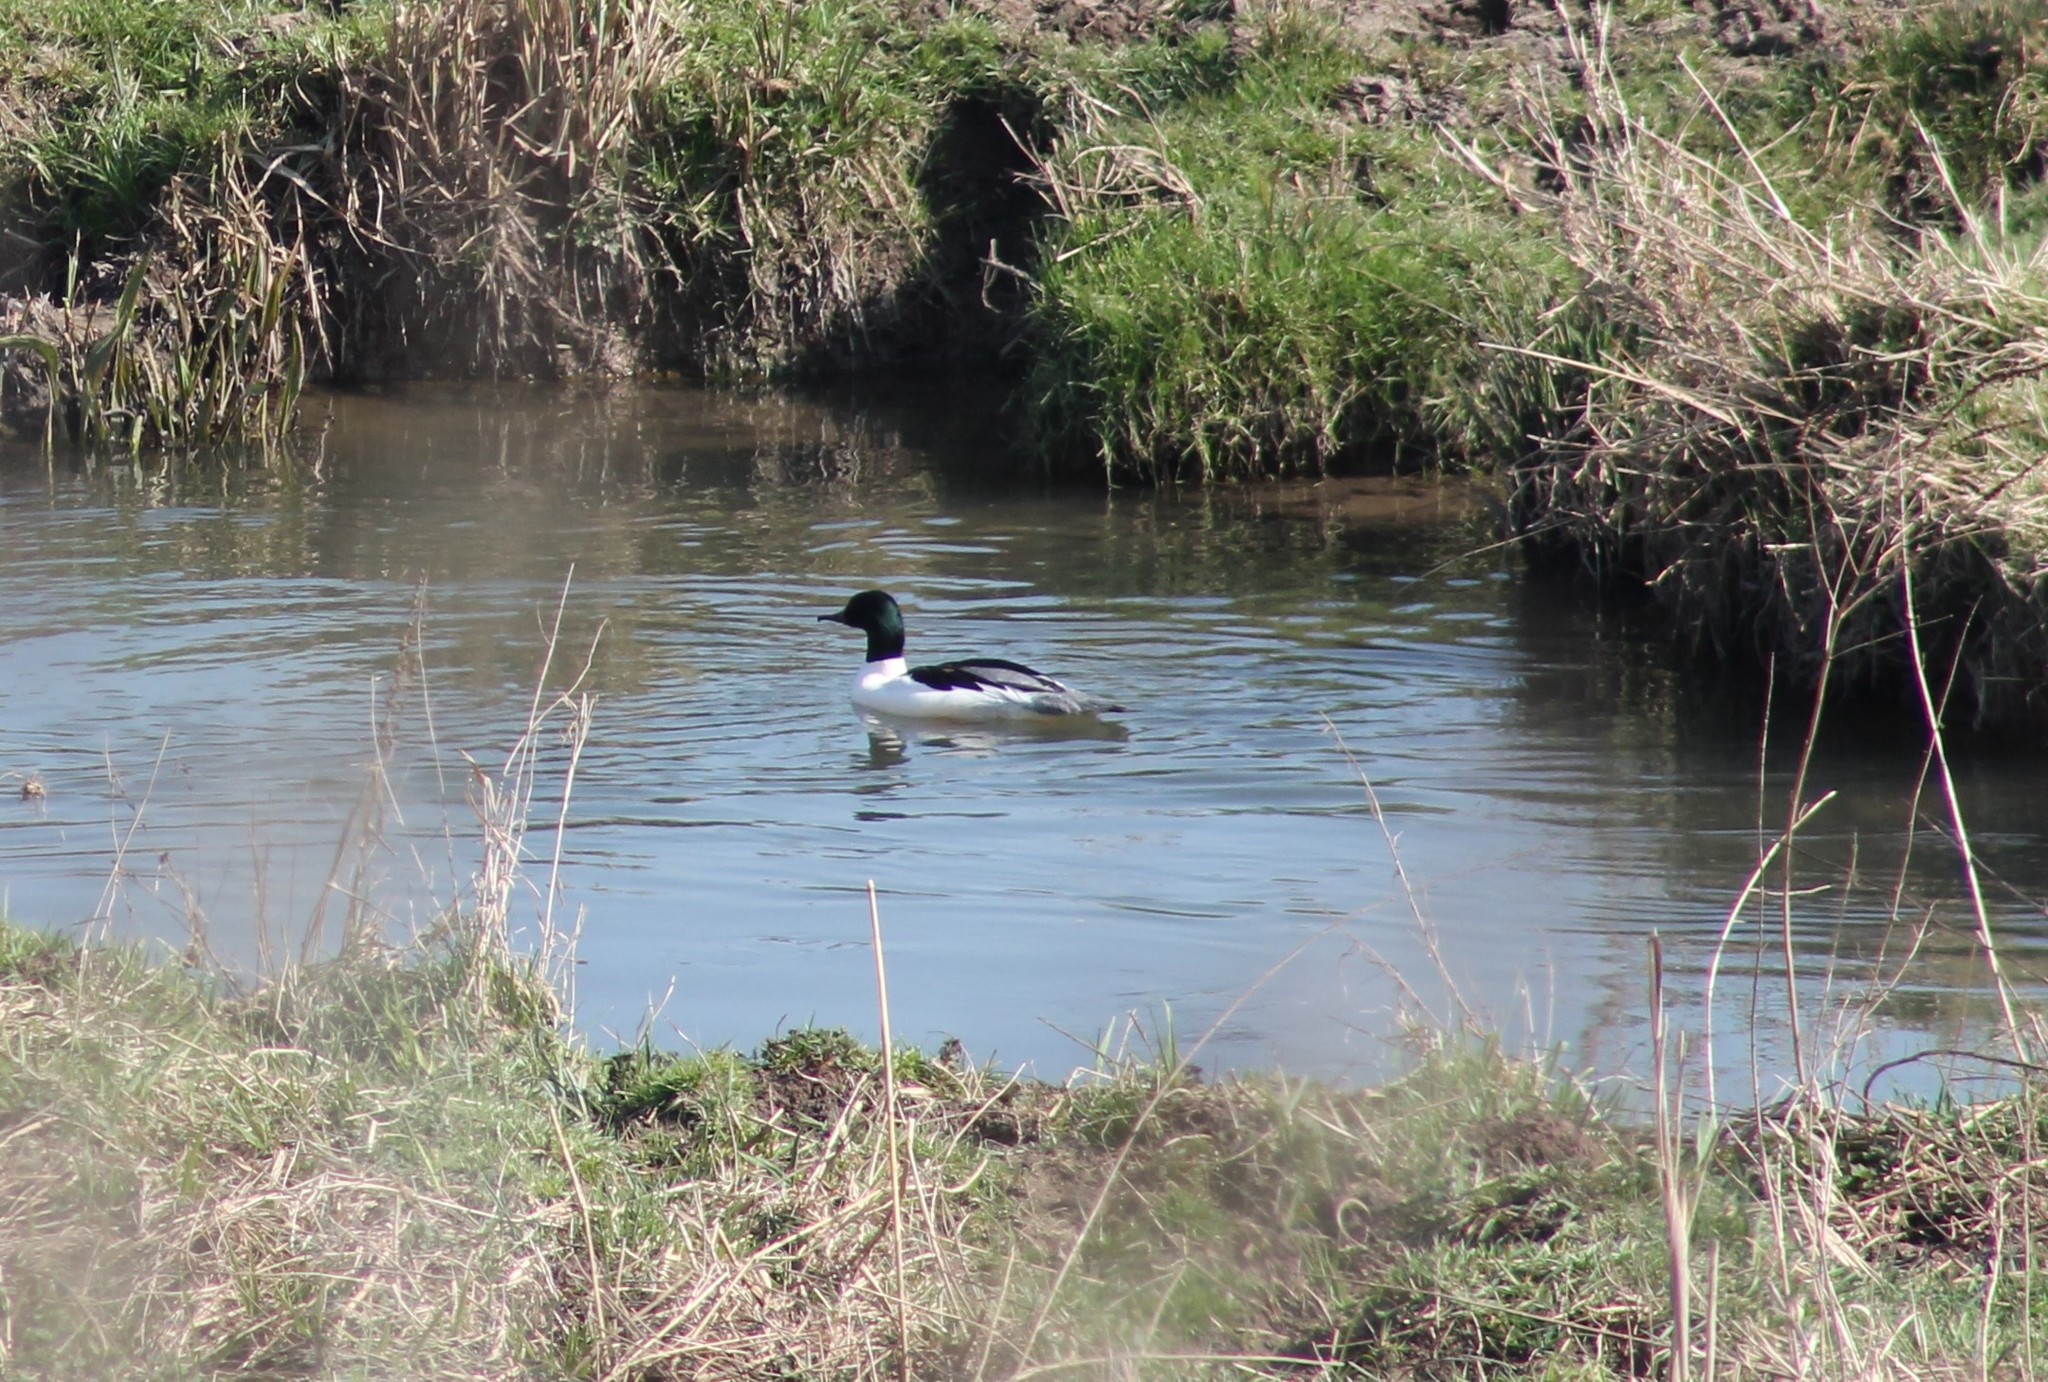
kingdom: Animalia
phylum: Chordata
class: Aves
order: Anseriformes
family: Anatidae
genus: Mergus
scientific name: Mergus merganser
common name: Common merganser
